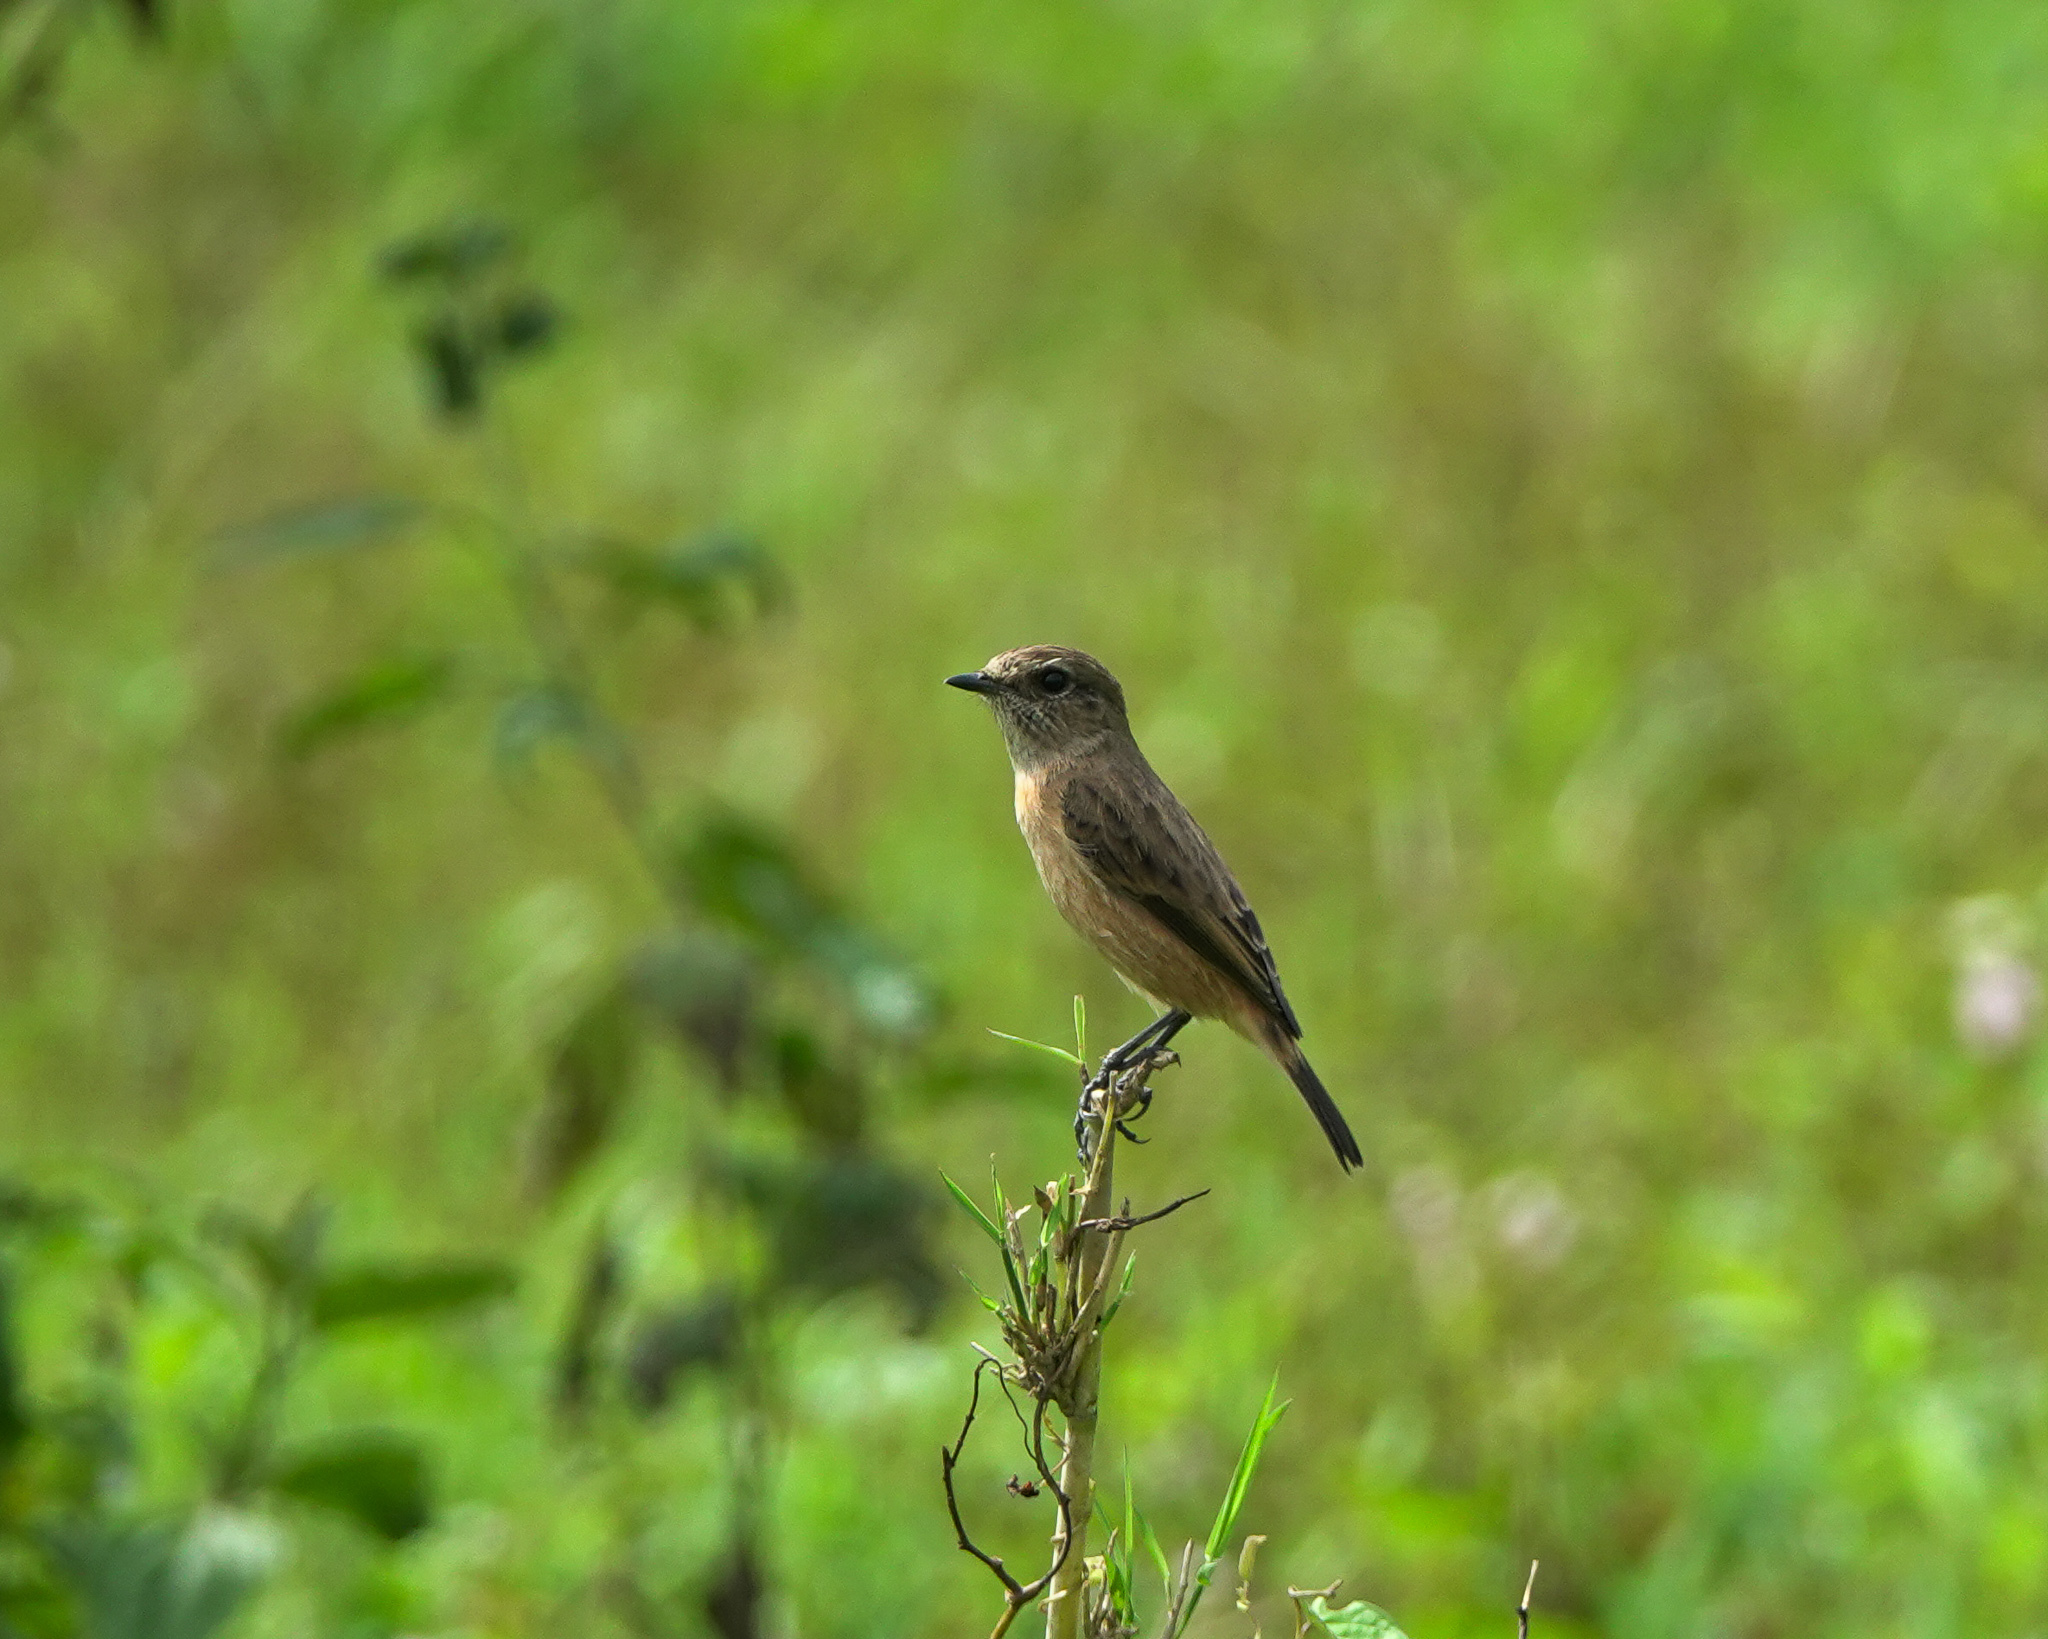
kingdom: Animalia
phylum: Chordata
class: Aves
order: Passeriformes
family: Muscicapidae
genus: Saxicola
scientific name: Saxicola maurus
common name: Siberian stonechat
